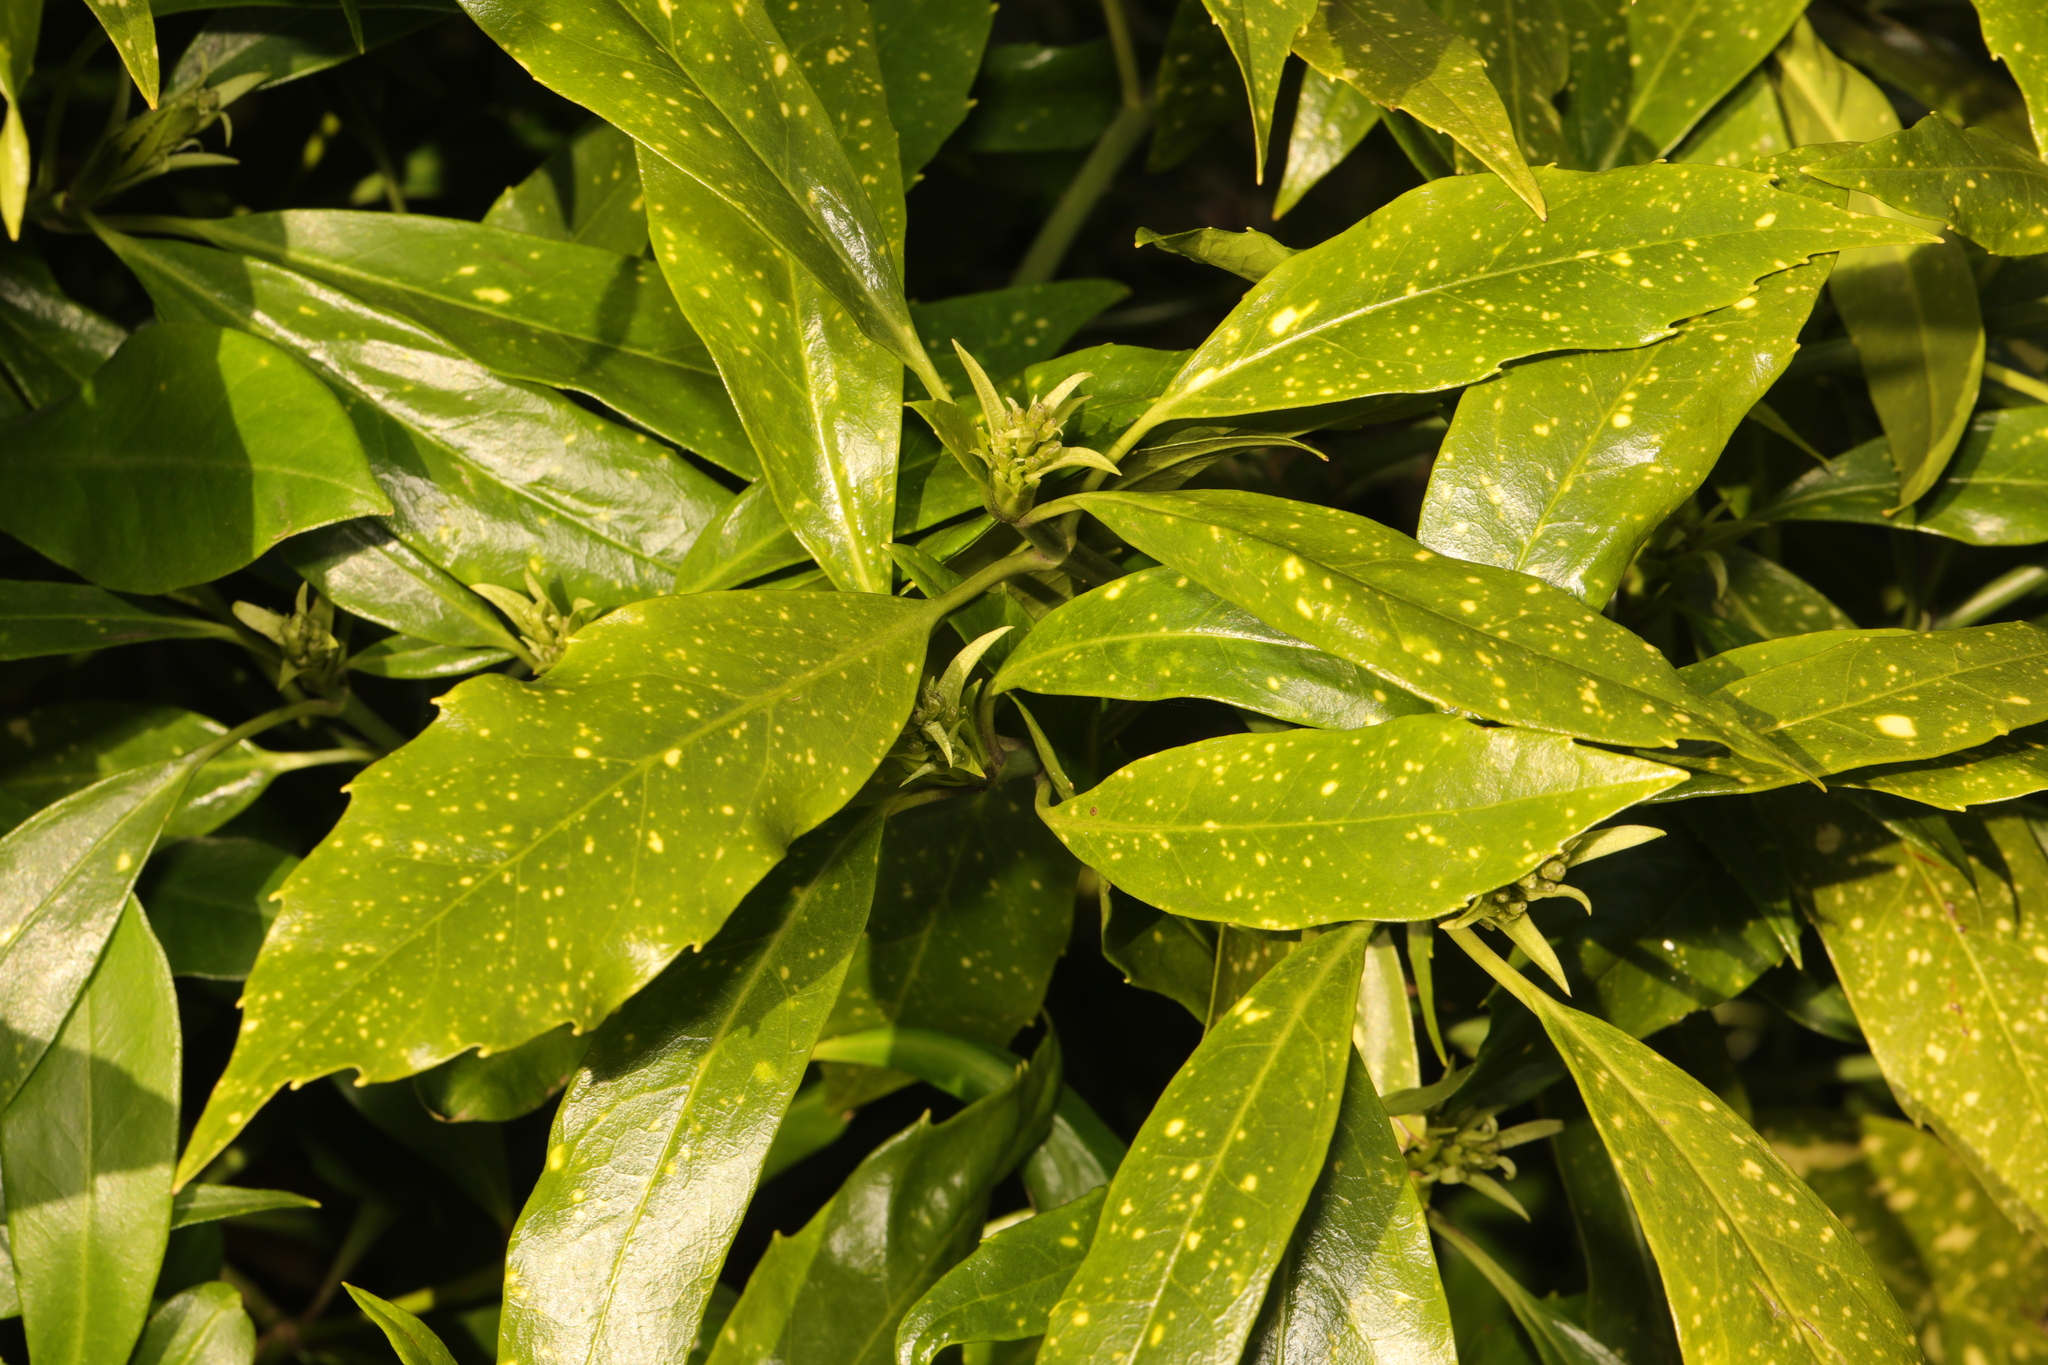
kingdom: Plantae
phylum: Tracheophyta
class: Magnoliopsida
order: Garryales
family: Garryaceae
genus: Aucuba
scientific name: Aucuba japonica
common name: Spotted-laurel
